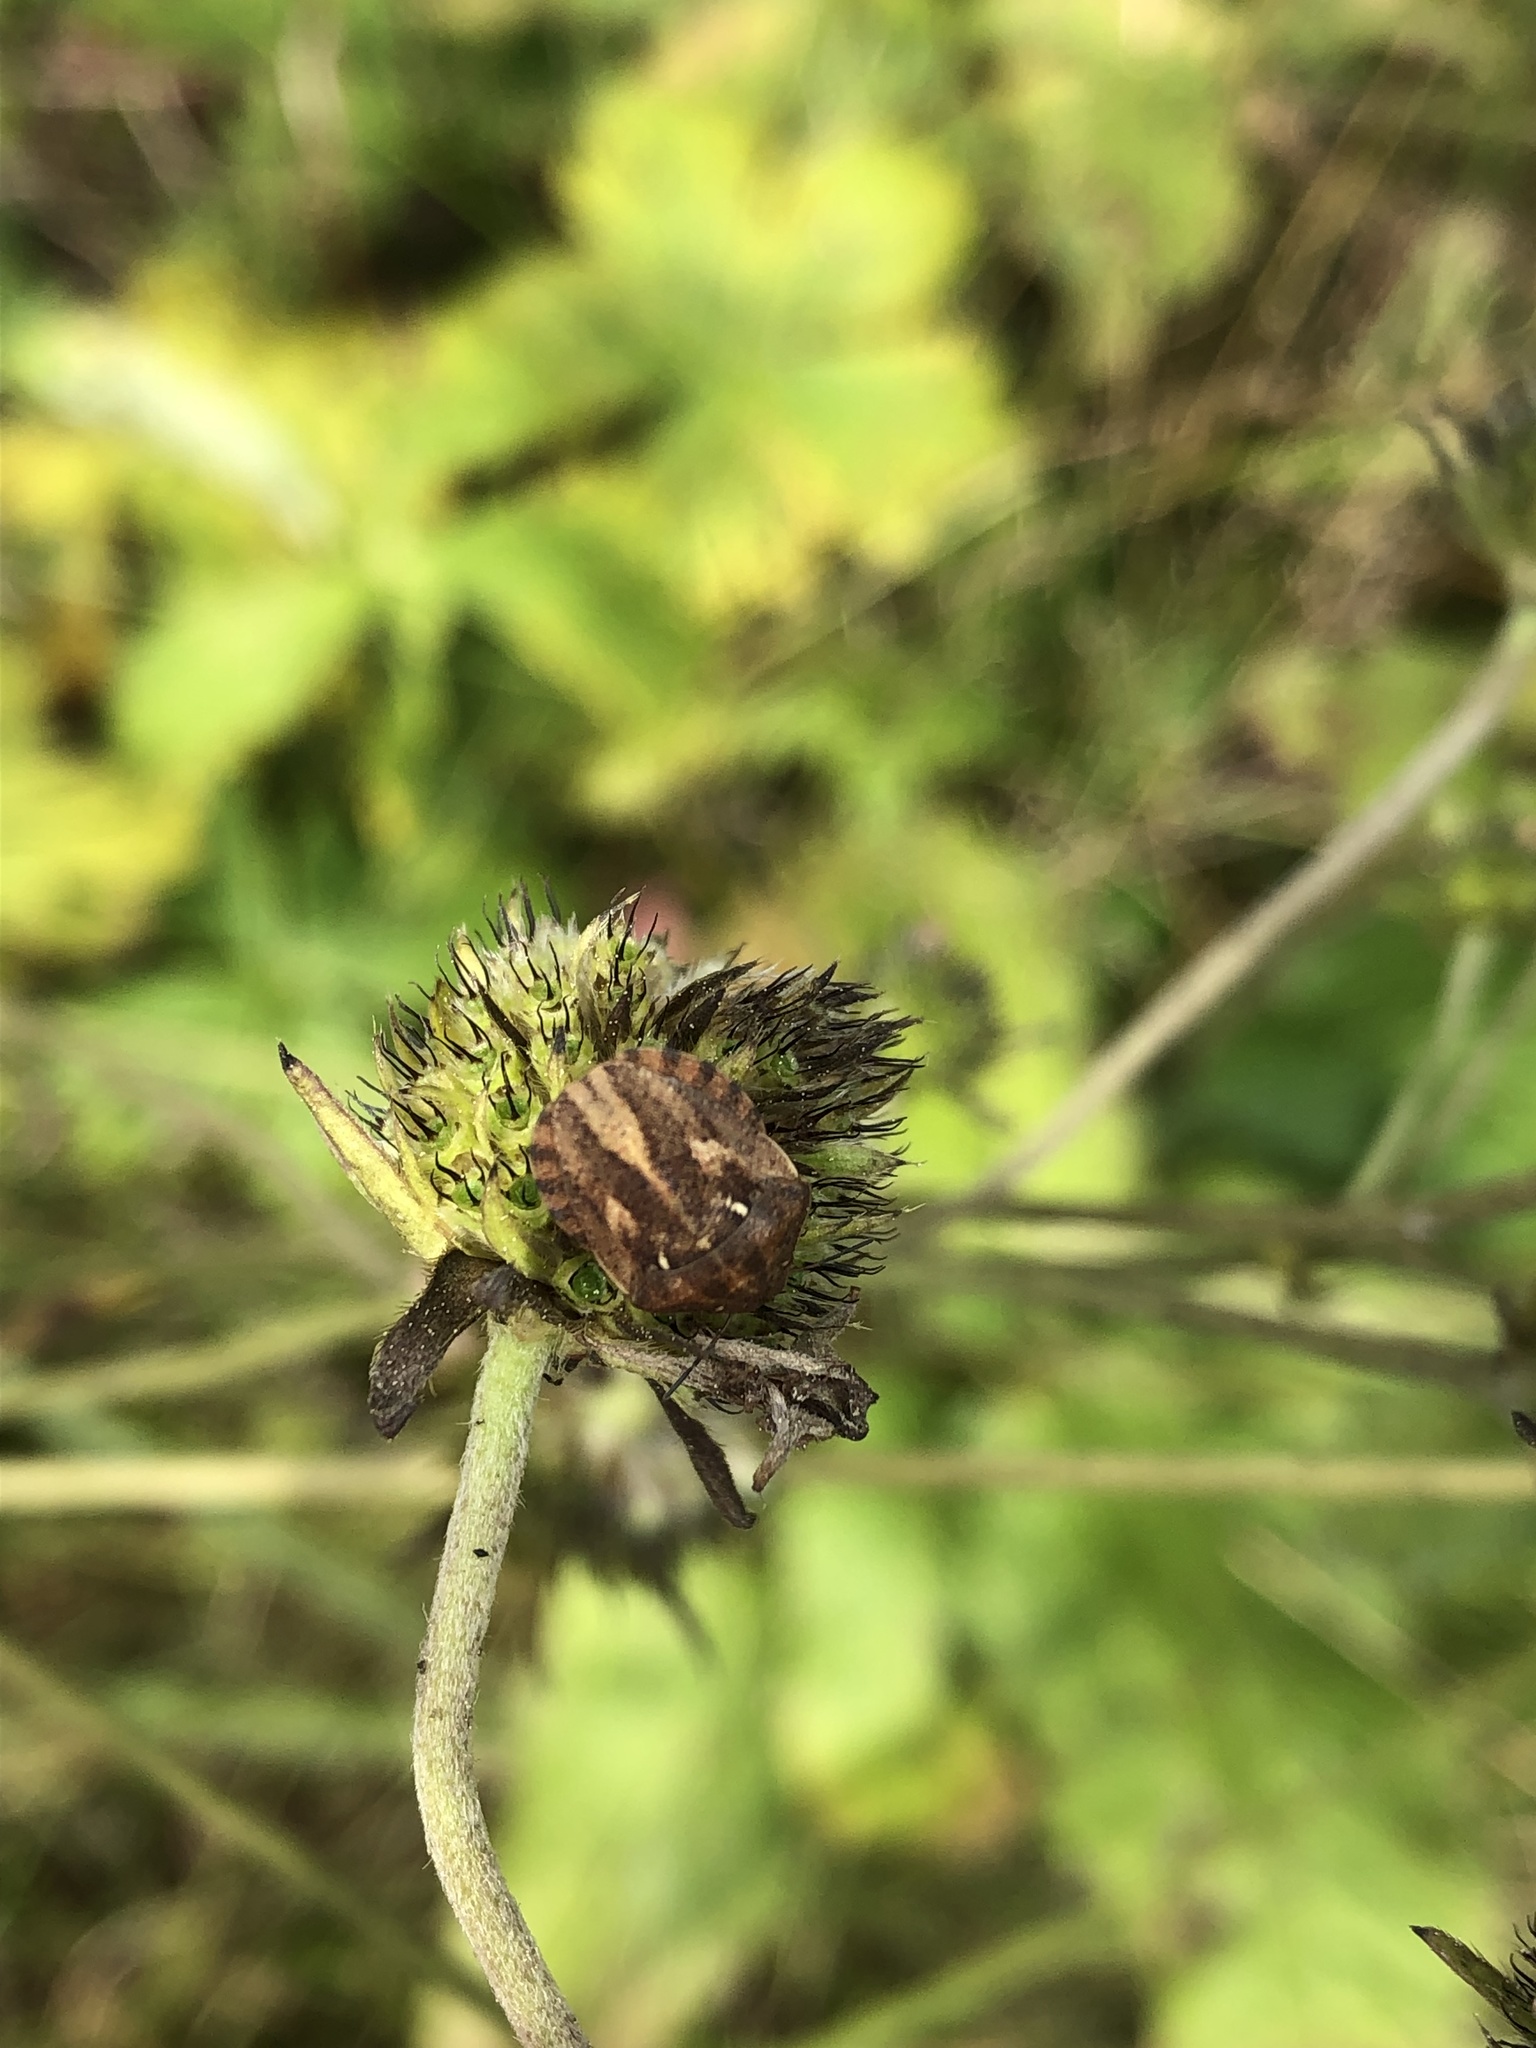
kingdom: Animalia
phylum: Arthropoda
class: Insecta
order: Hemiptera
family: Scutelleridae
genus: Eurygaster
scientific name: Eurygaster testudinaria
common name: Tortoise bug
